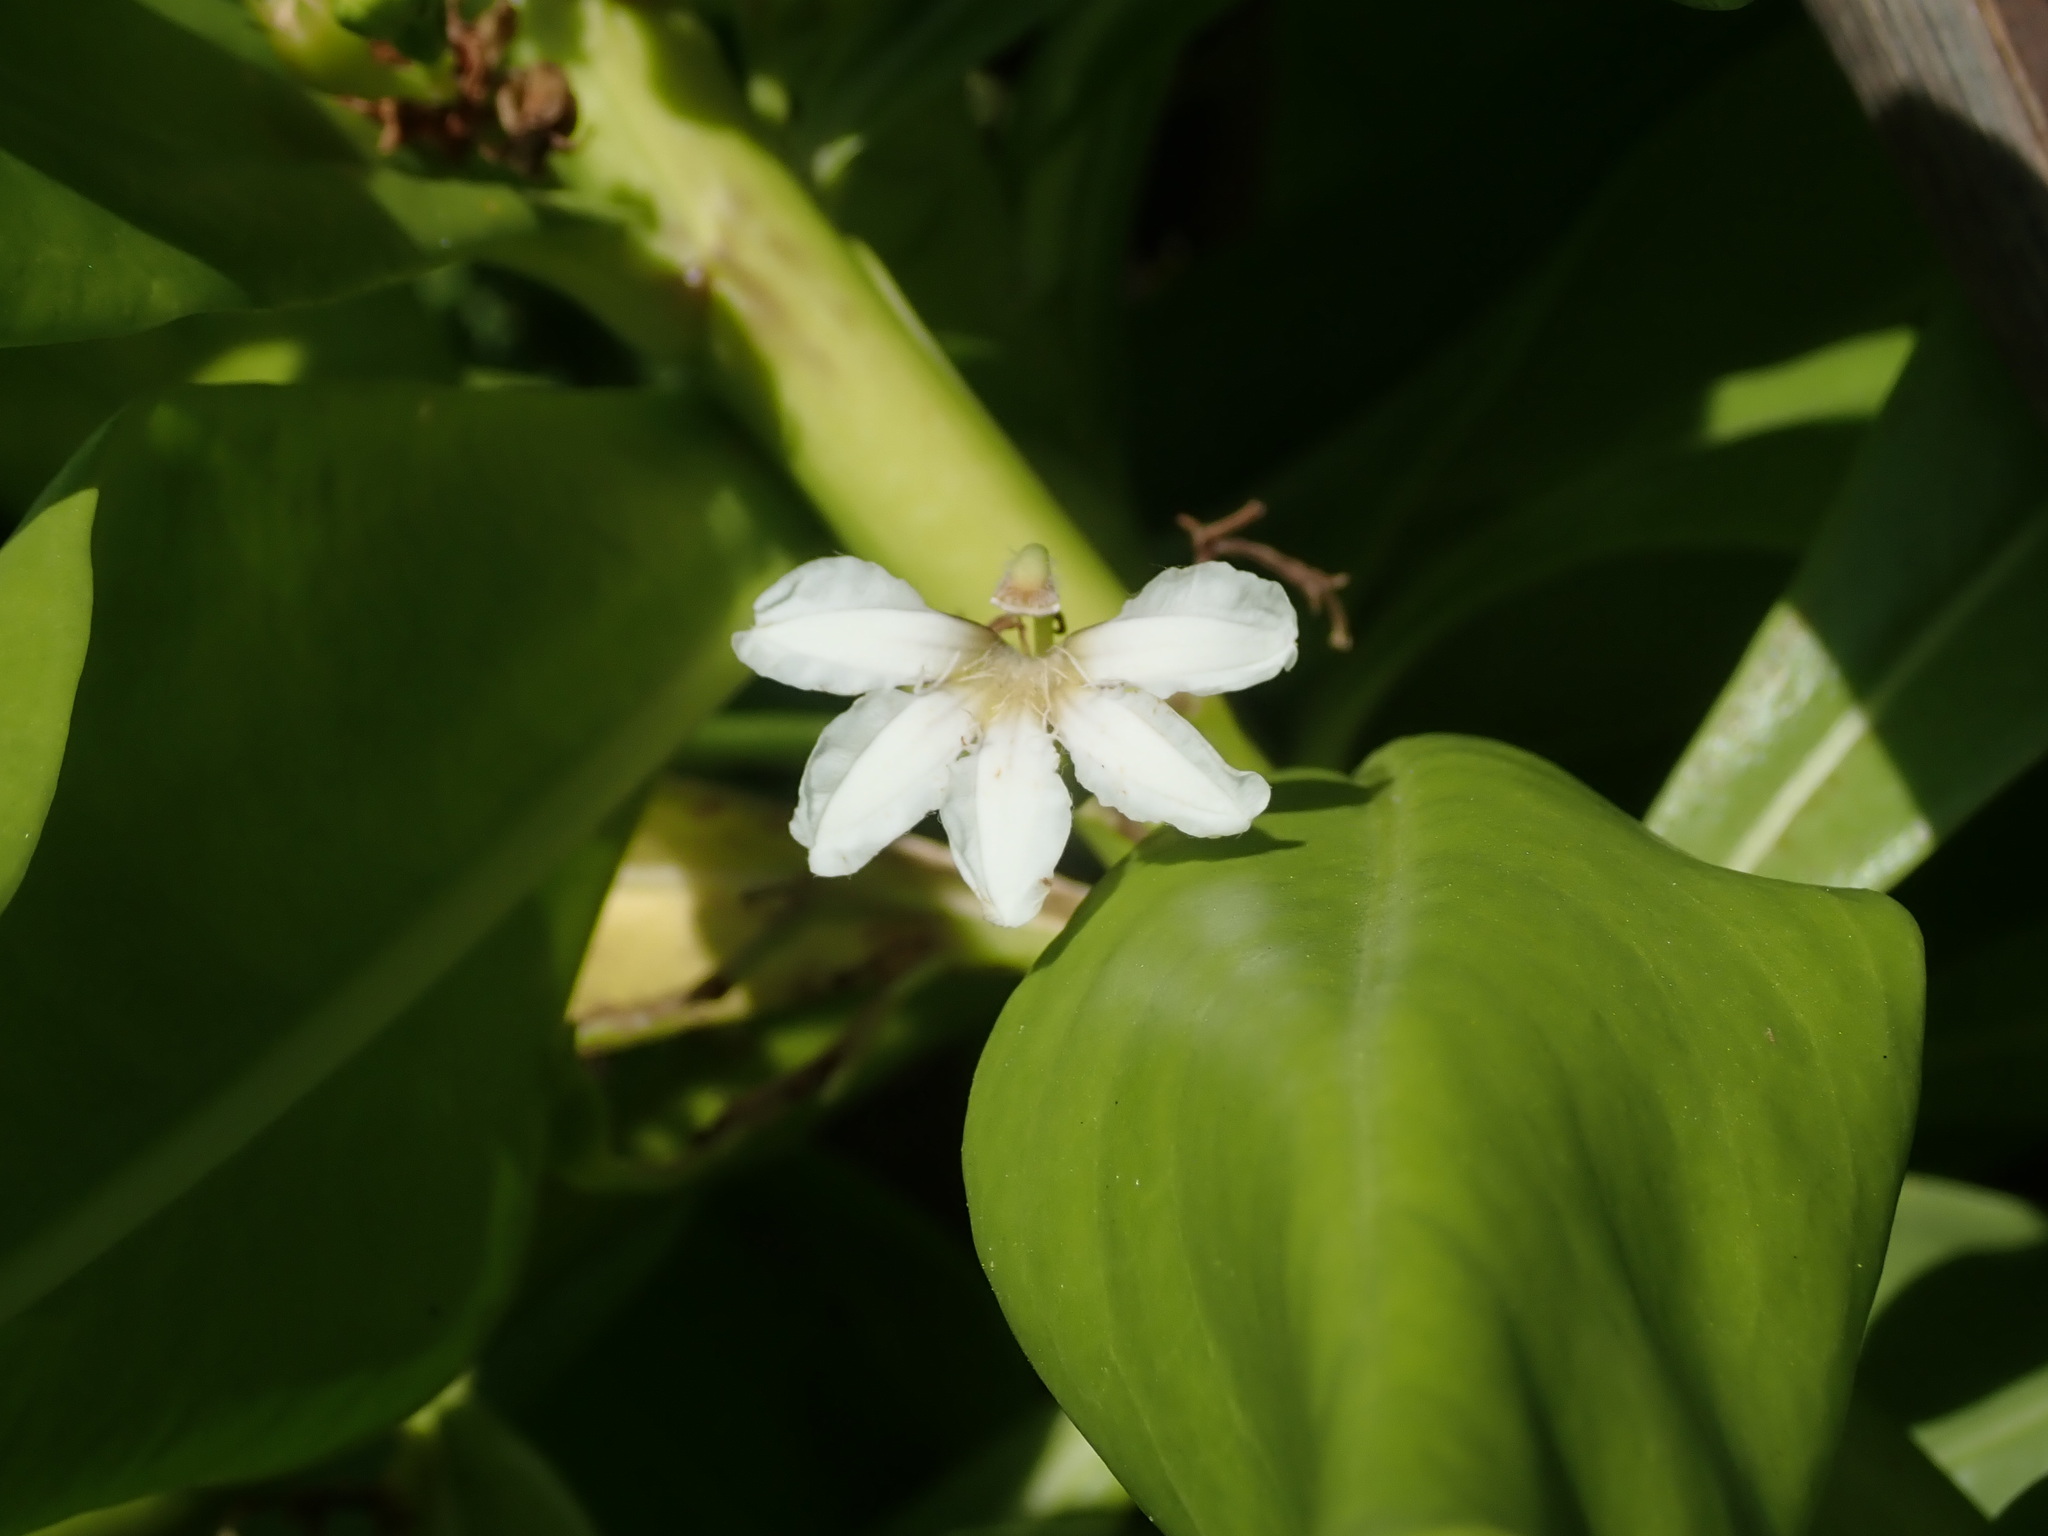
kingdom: Plantae
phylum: Tracheophyta
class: Magnoliopsida
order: Asterales
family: Goodeniaceae
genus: Scaevola
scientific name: Scaevola taccada
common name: Sea lettucetree
